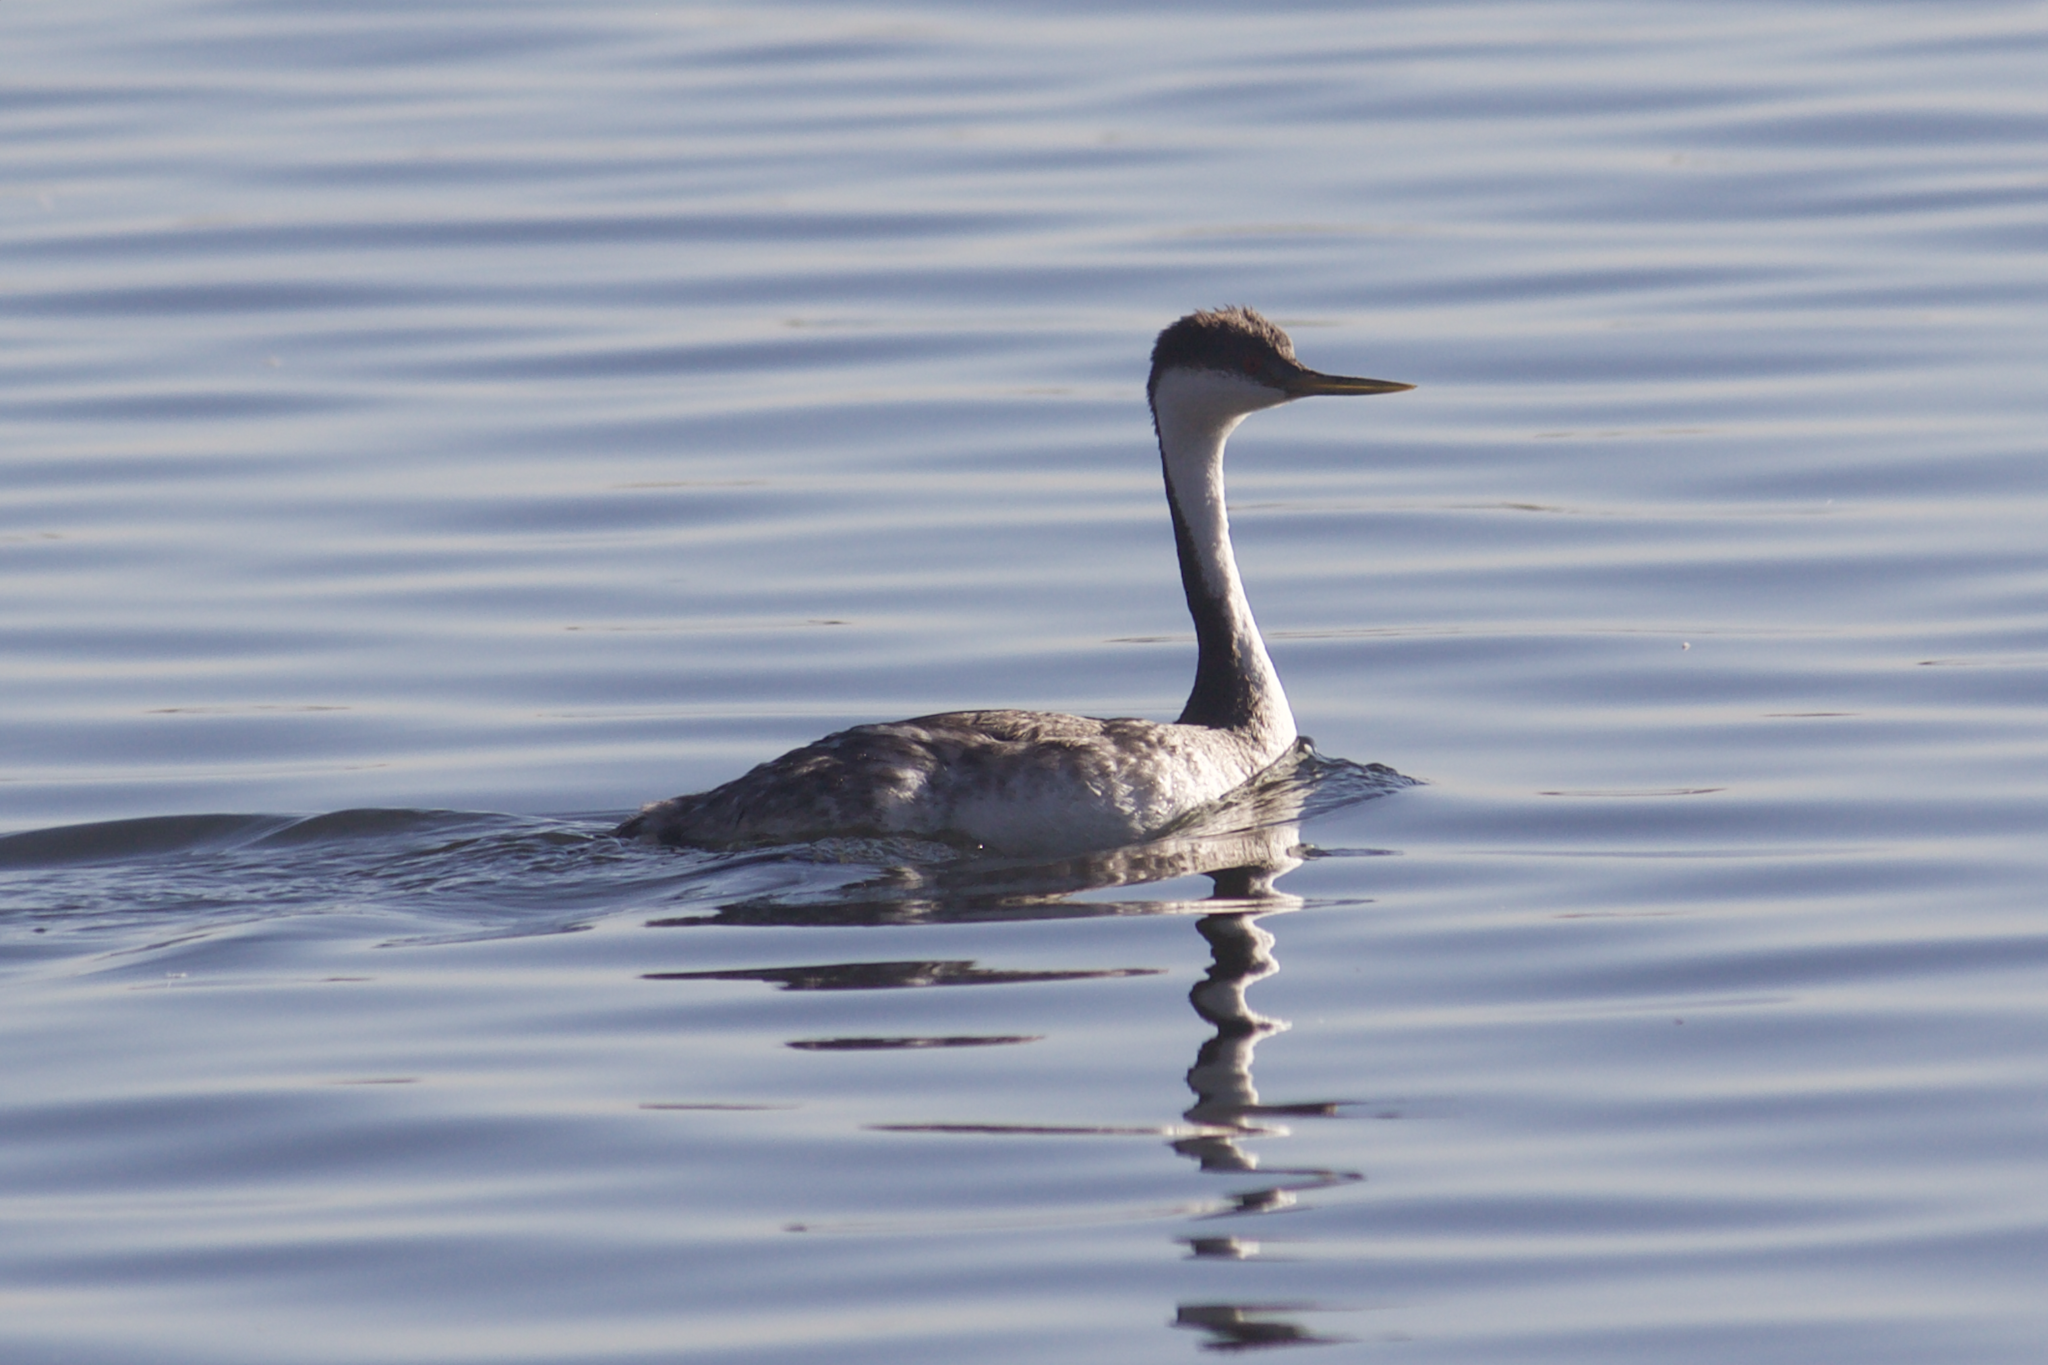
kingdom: Animalia
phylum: Chordata
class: Aves
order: Podicipediformes
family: Podicipedidae
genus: Aechmophorus
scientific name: Aechmophorus occidentalis
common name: Western grebe
